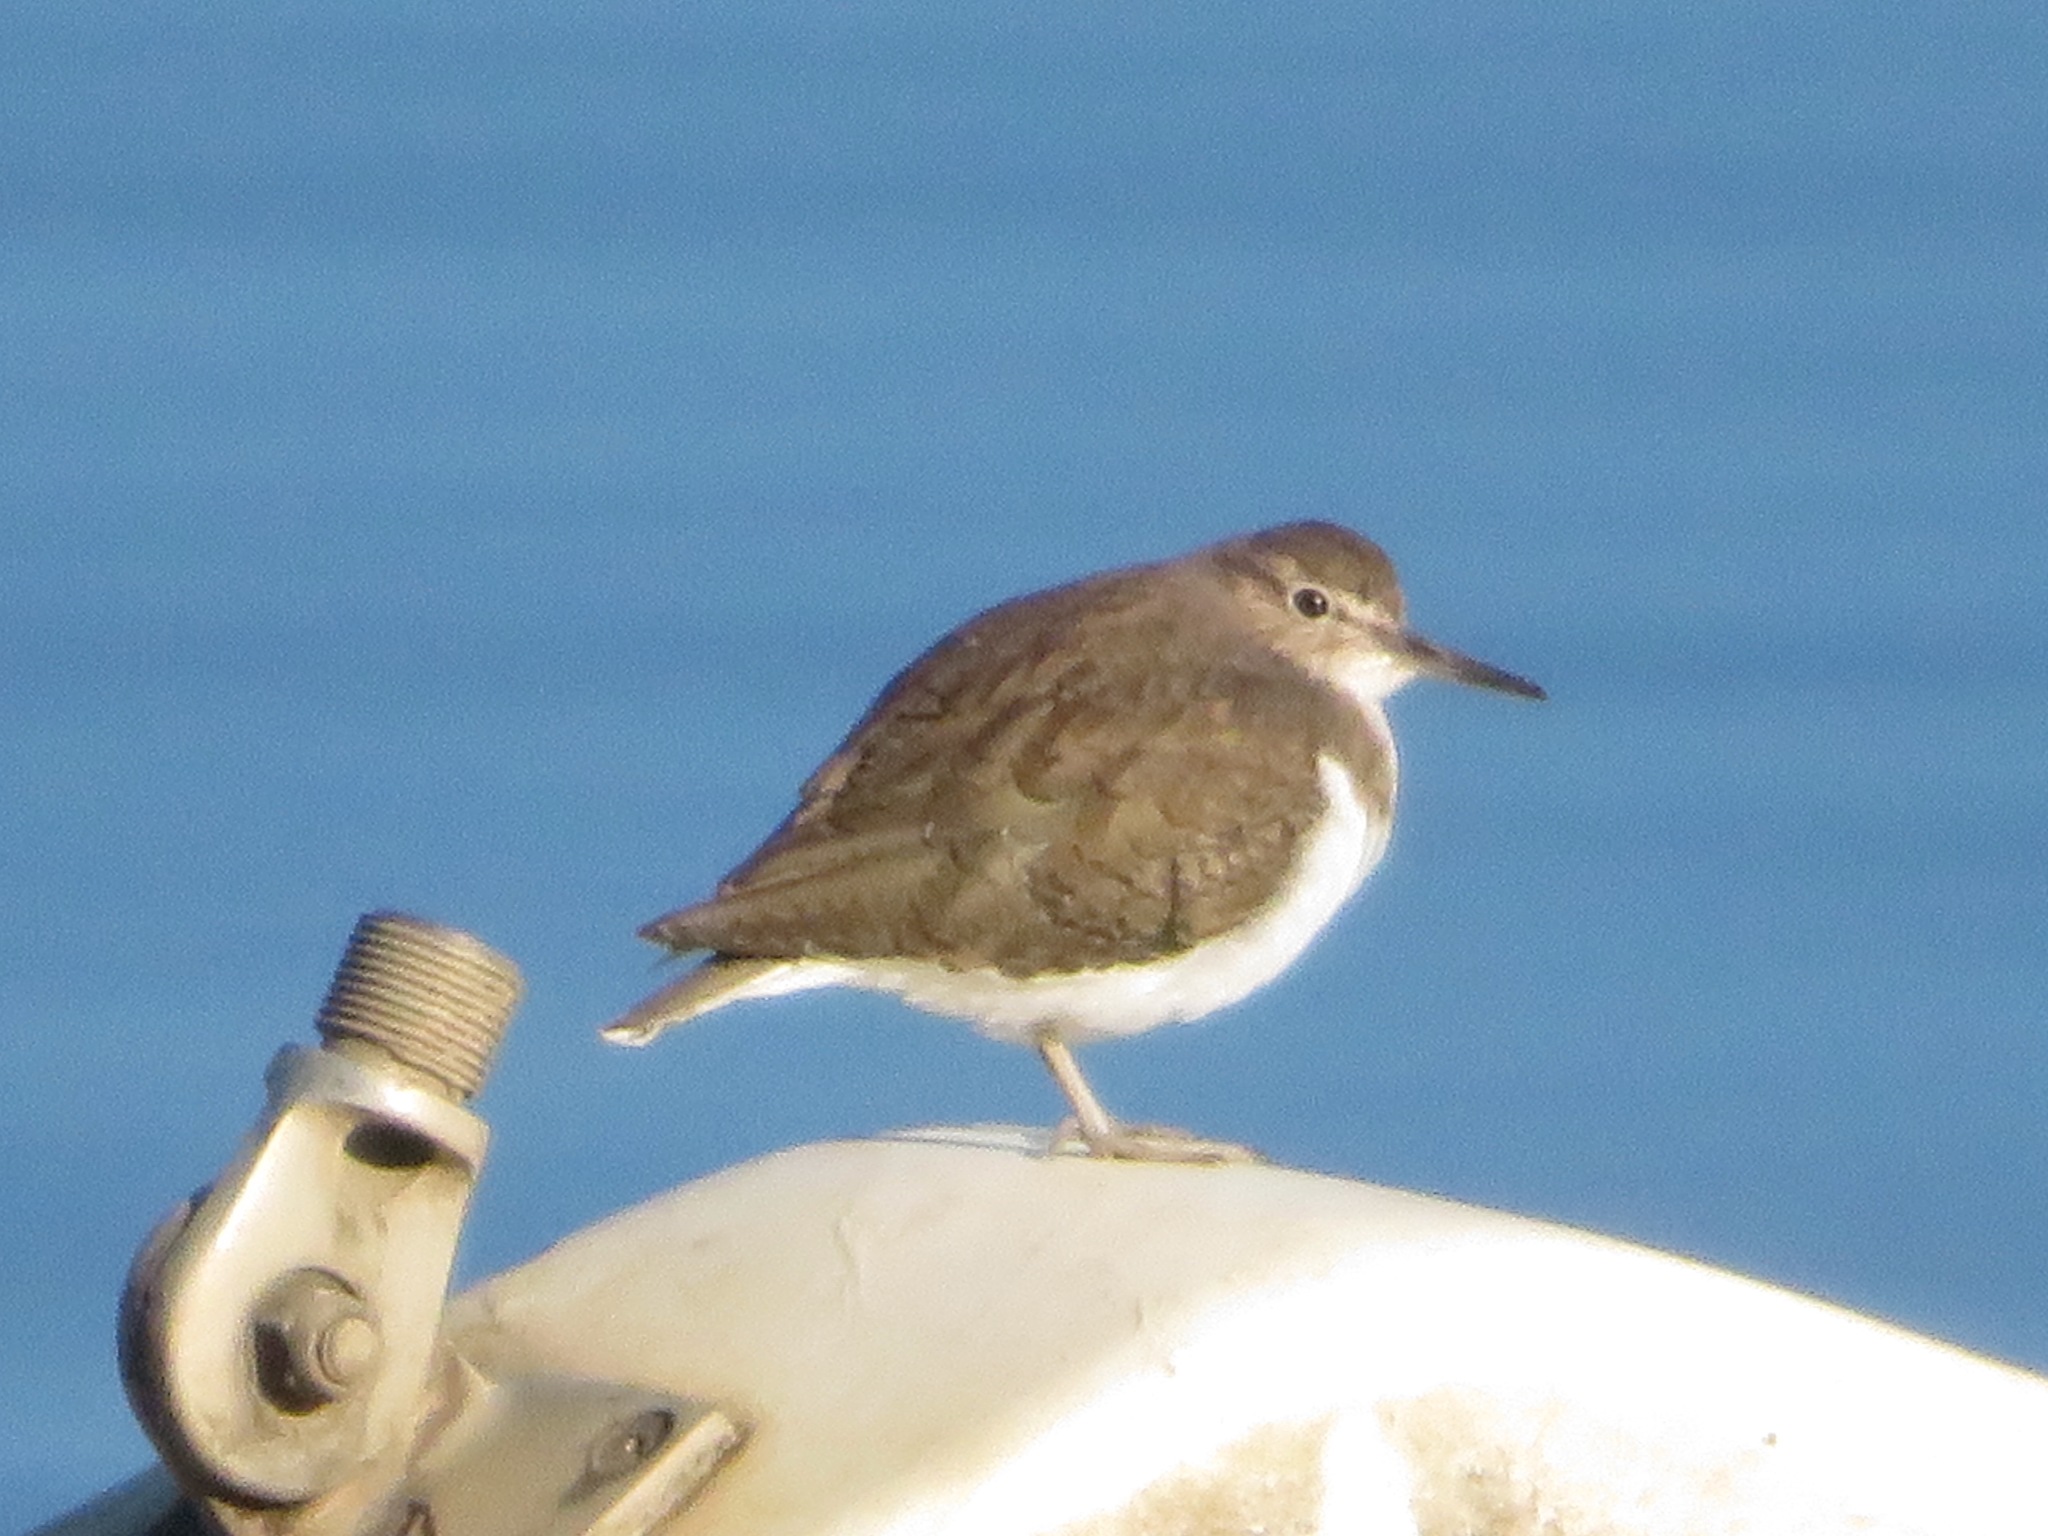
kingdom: Animalia
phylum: Chordata
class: Aves
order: Charadriiformes
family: Scolopacidae
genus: Actitis
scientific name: Actitis hypoleucos
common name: Common sandpiper
